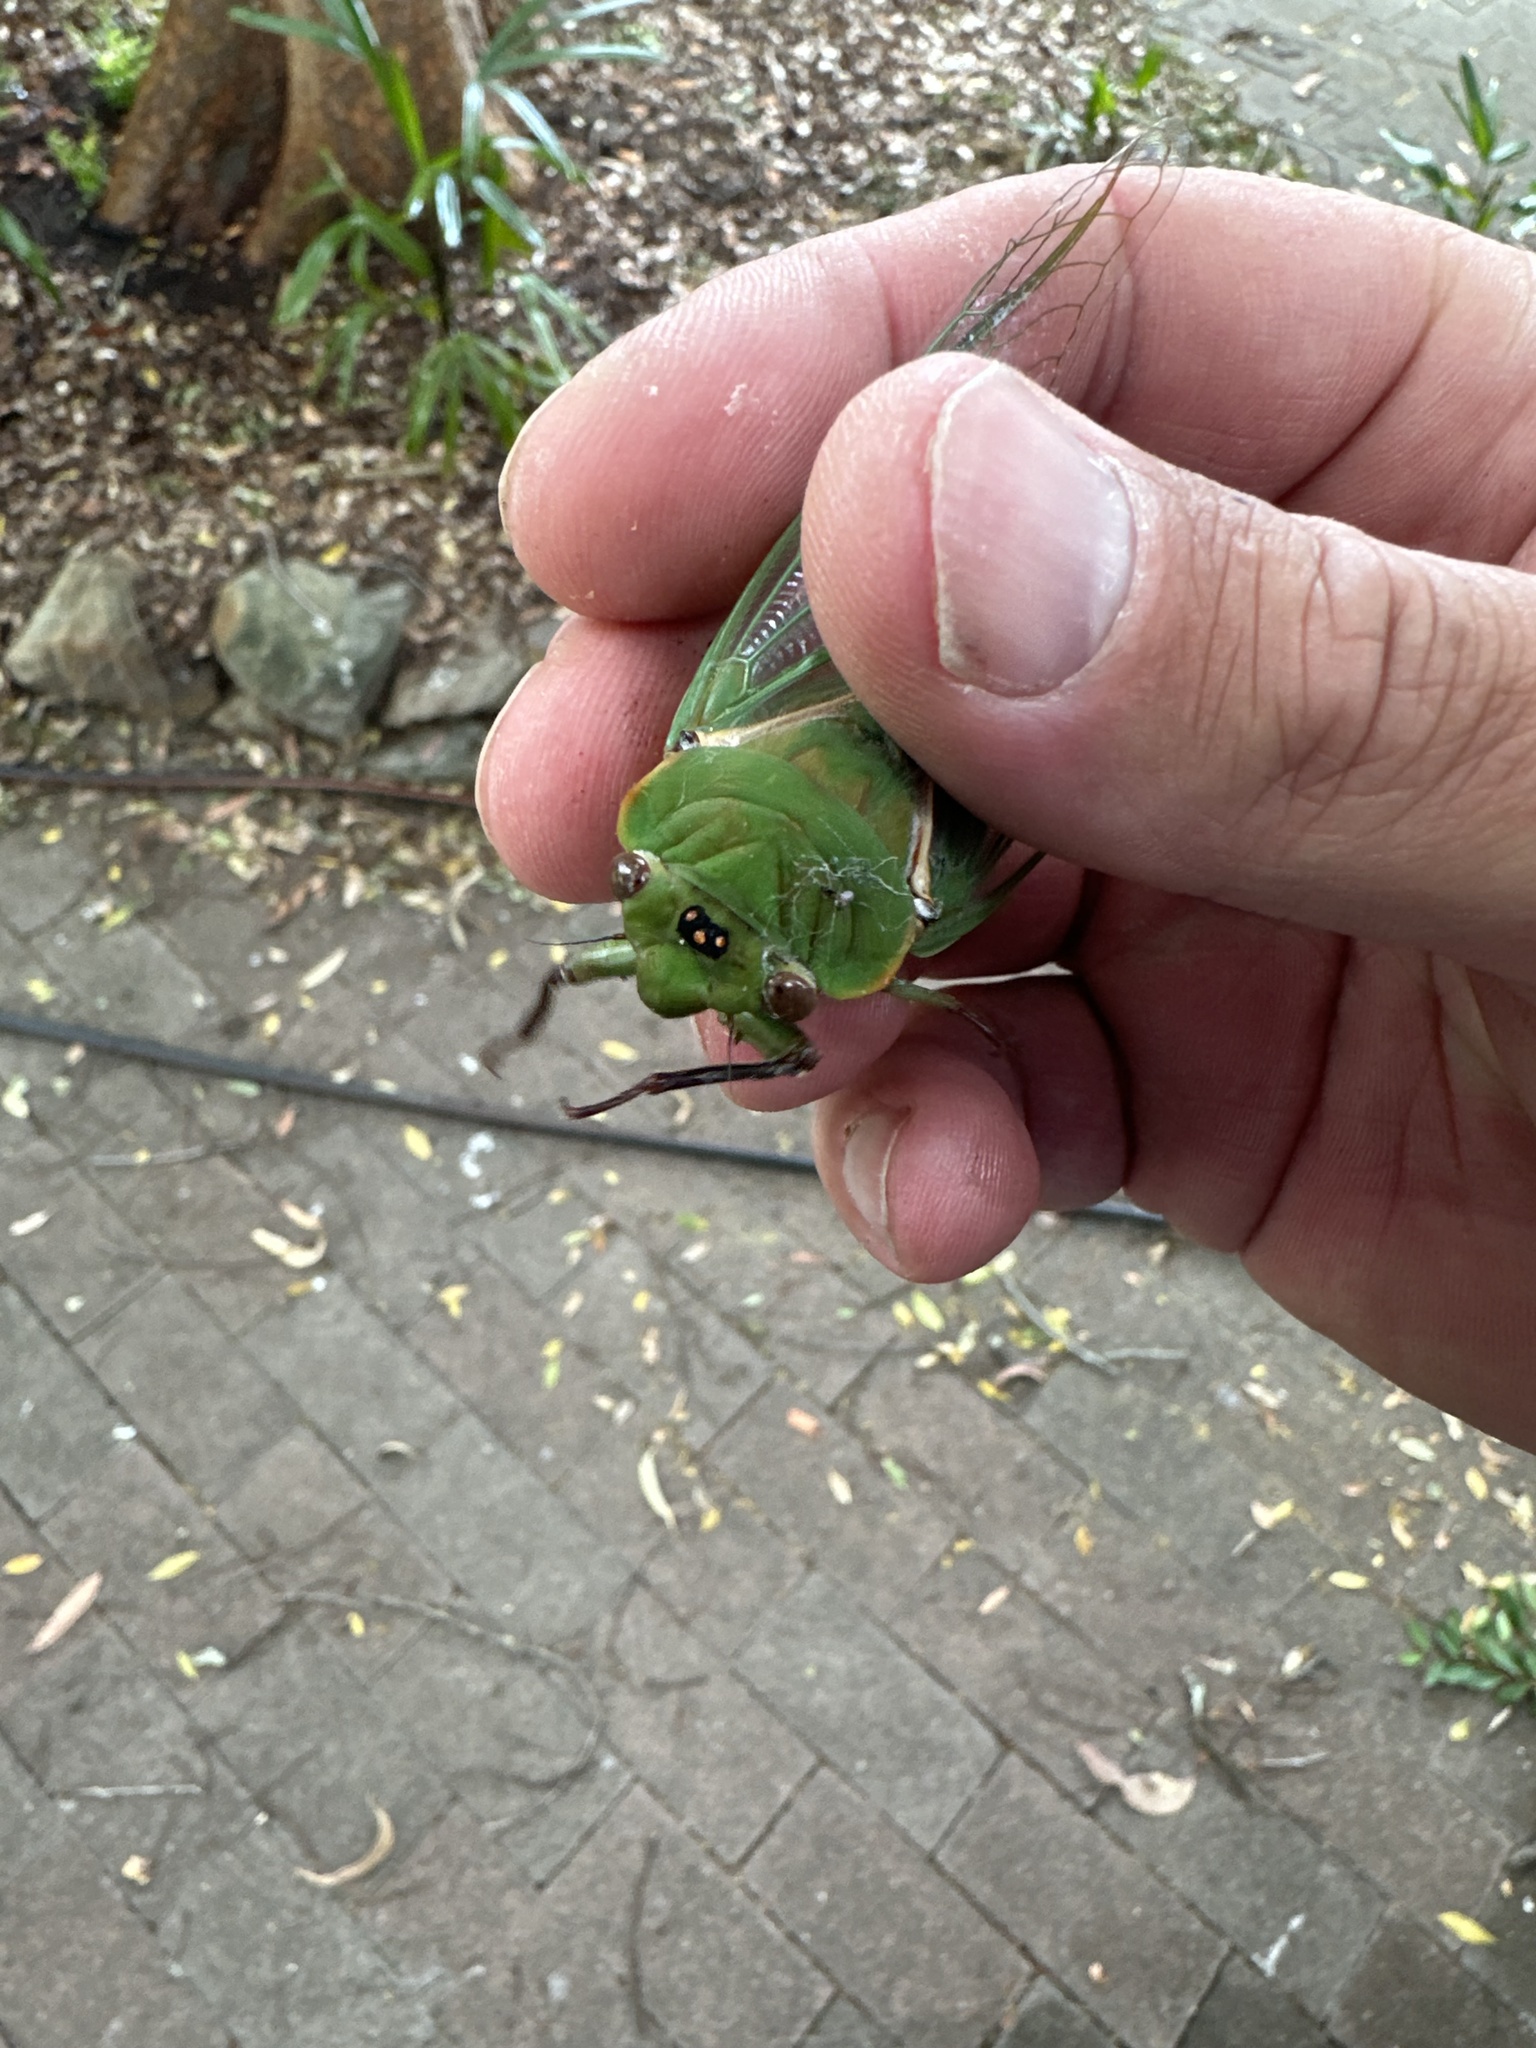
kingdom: Animalia
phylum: Arthropoda
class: Insecta
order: Hemiptera
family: Cicadidae
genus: Cyclochila
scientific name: Cyclochila australasiae
